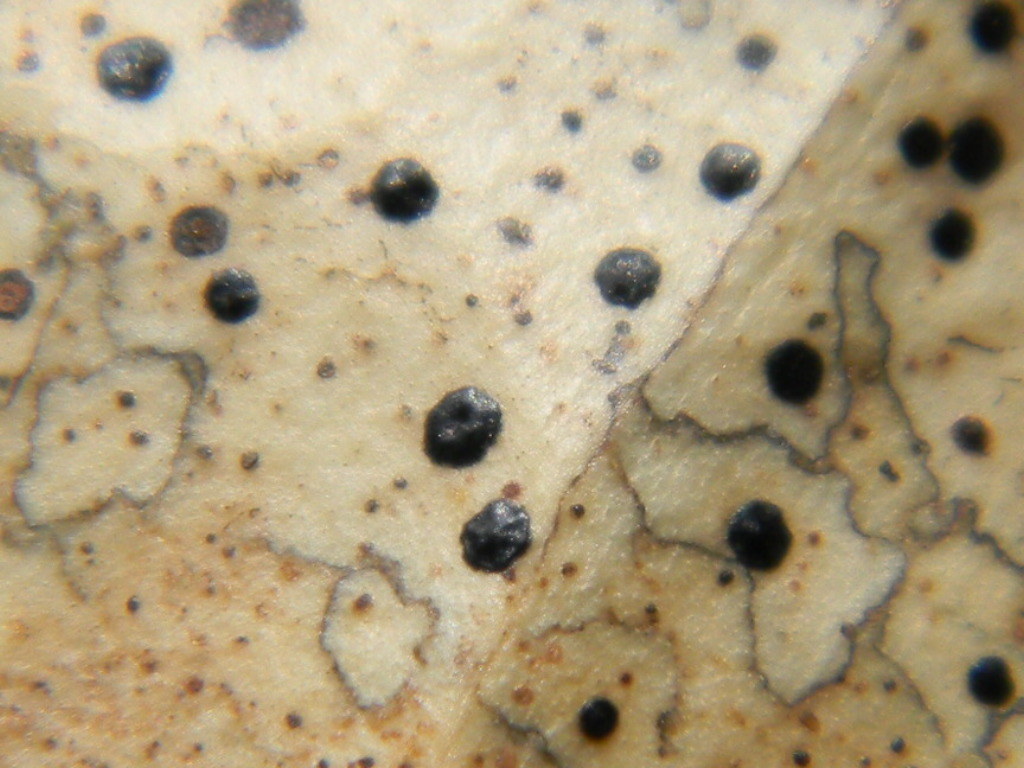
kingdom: Fungi
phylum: Ascomycota
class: Leotiomycetes
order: Rhytismatales
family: Rhytismataceae
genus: Coccomyces
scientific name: Coccomyces dentatus
